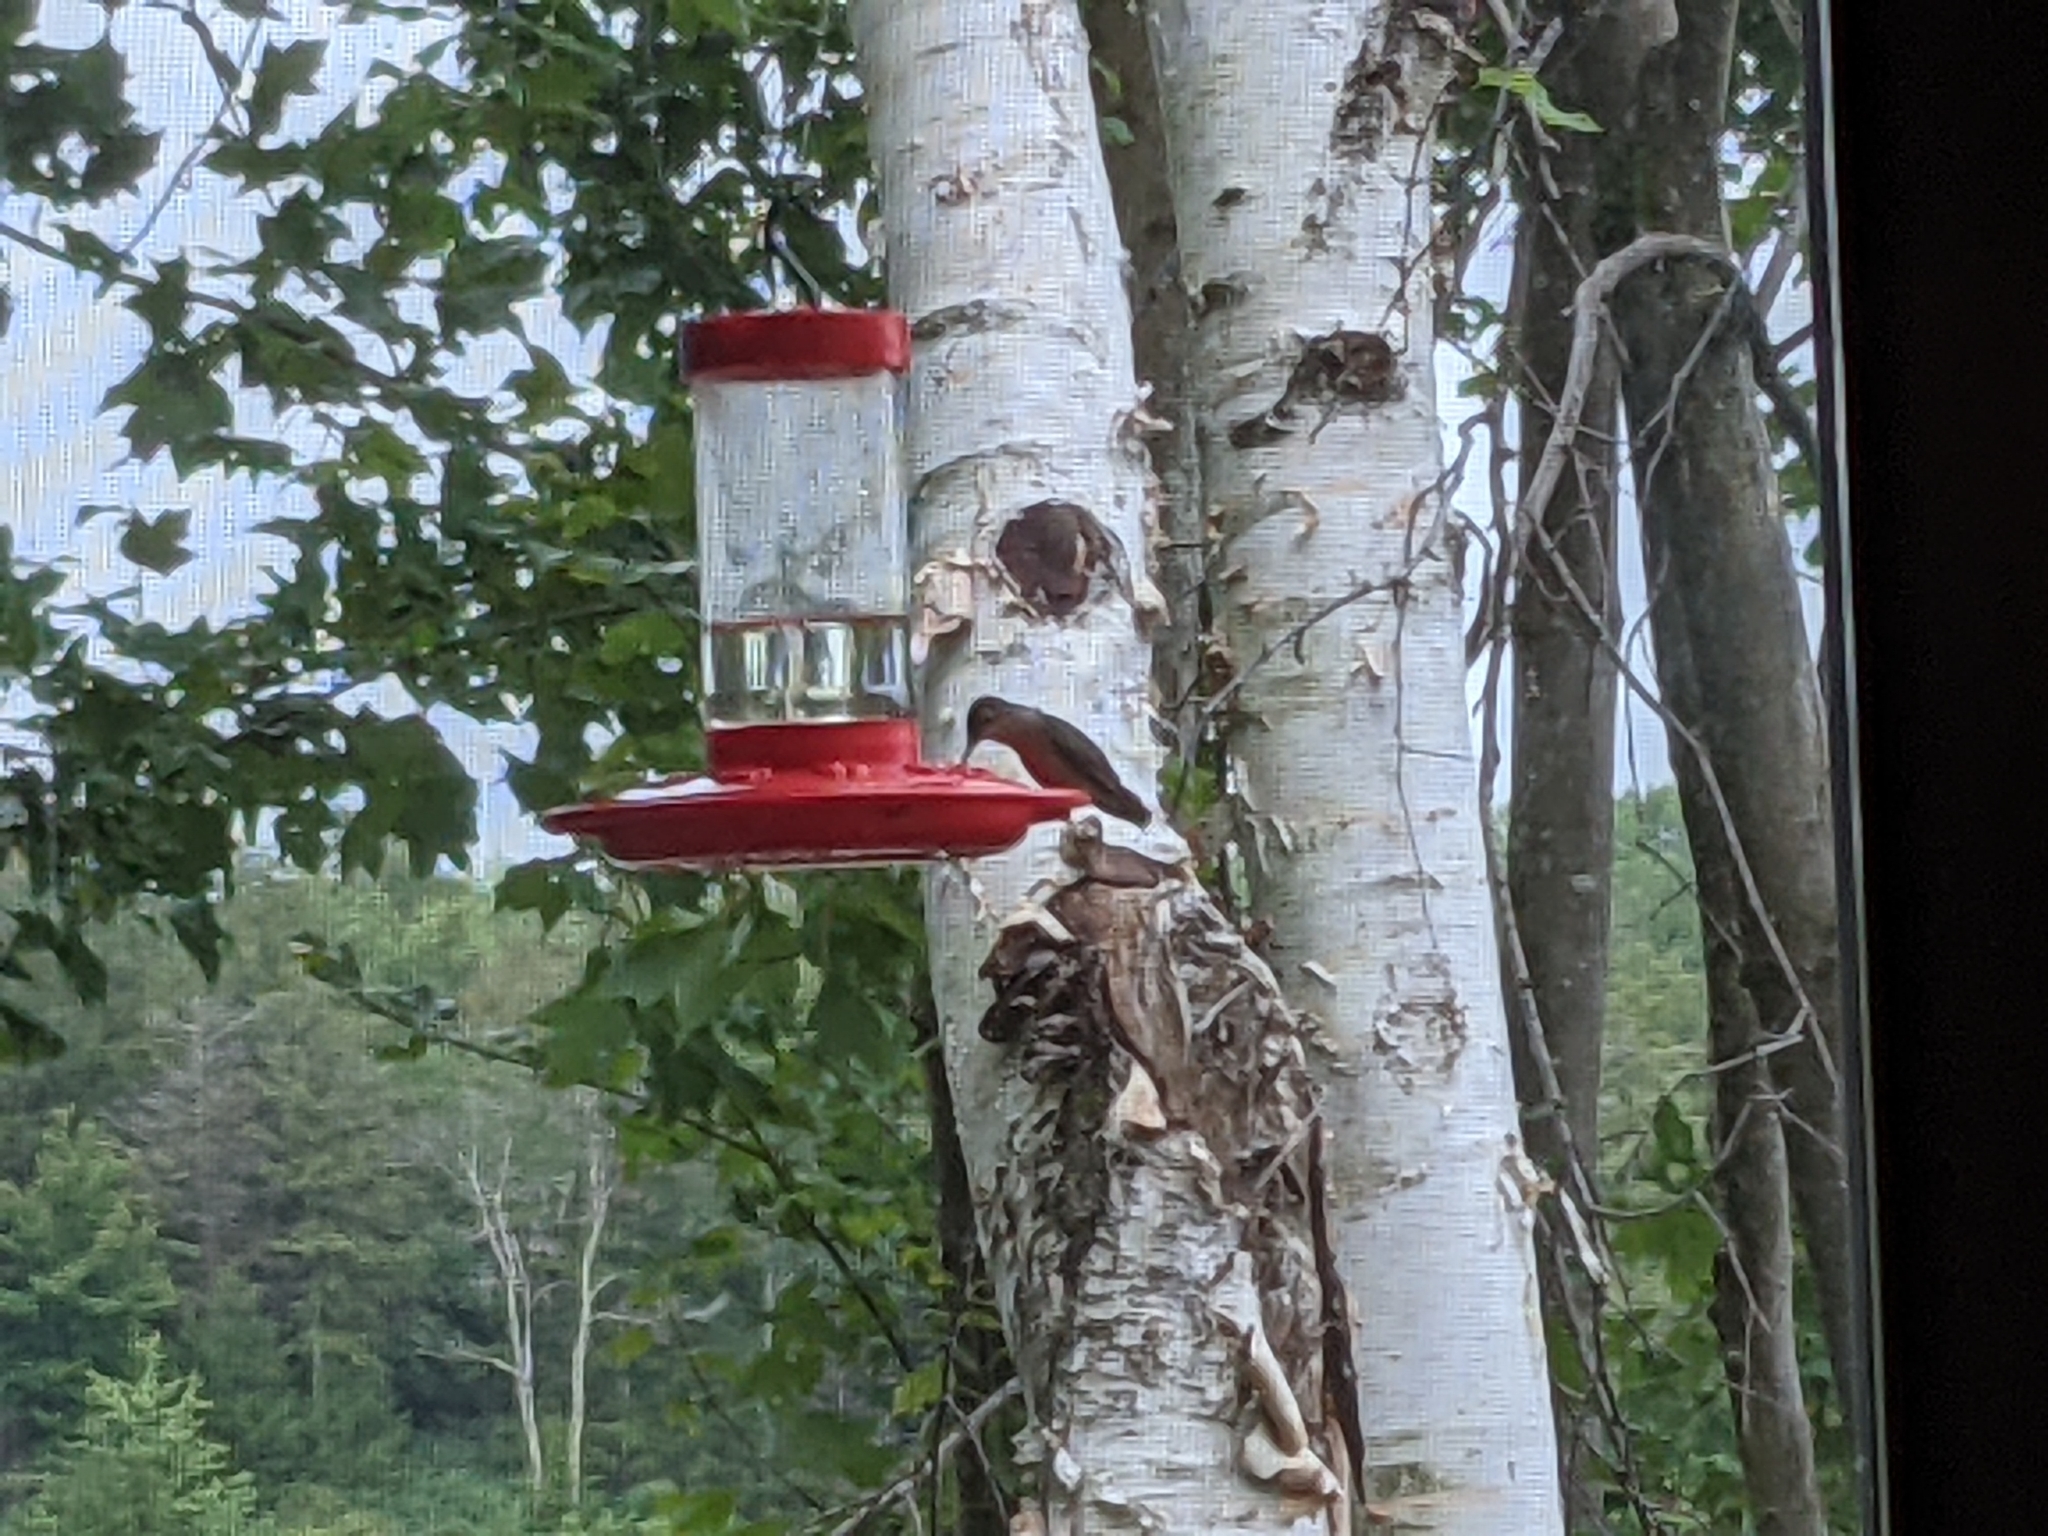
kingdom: Animalia
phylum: Chordata
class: Aves
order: Apodiformes
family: Trochilidae
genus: Archilochus
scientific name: Archilochus colubris
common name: Ruby-throated hummingbird
